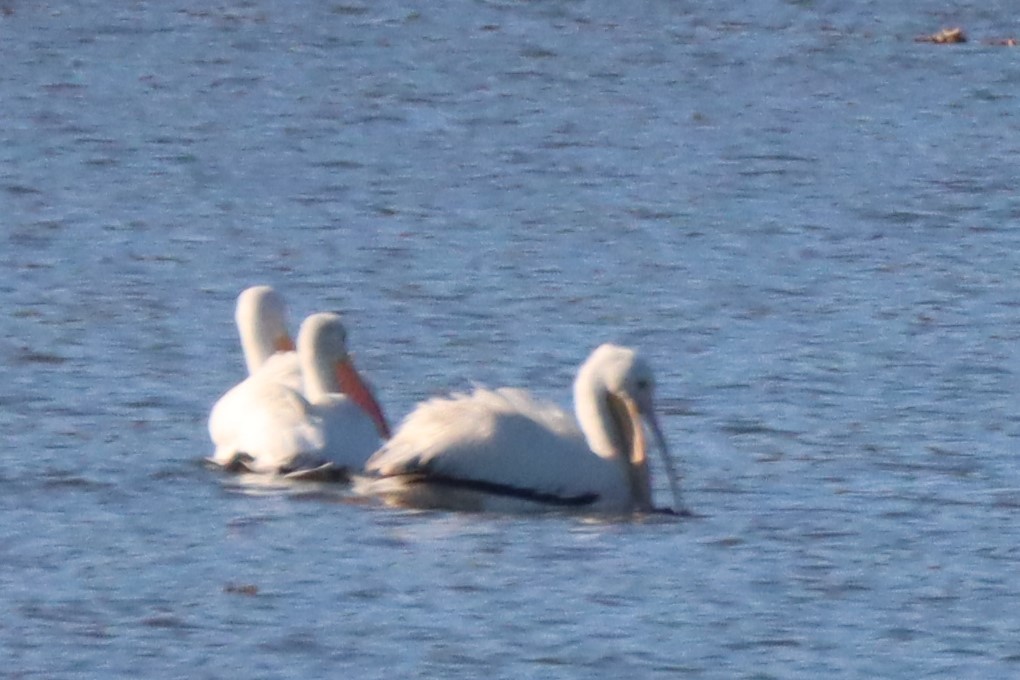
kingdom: Animalia
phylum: Chordata
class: Aves
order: Pelecaniformes
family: Pelecanidae
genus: Pelecanus
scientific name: Pelecanus erythrorhynchos
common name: American white pelican
